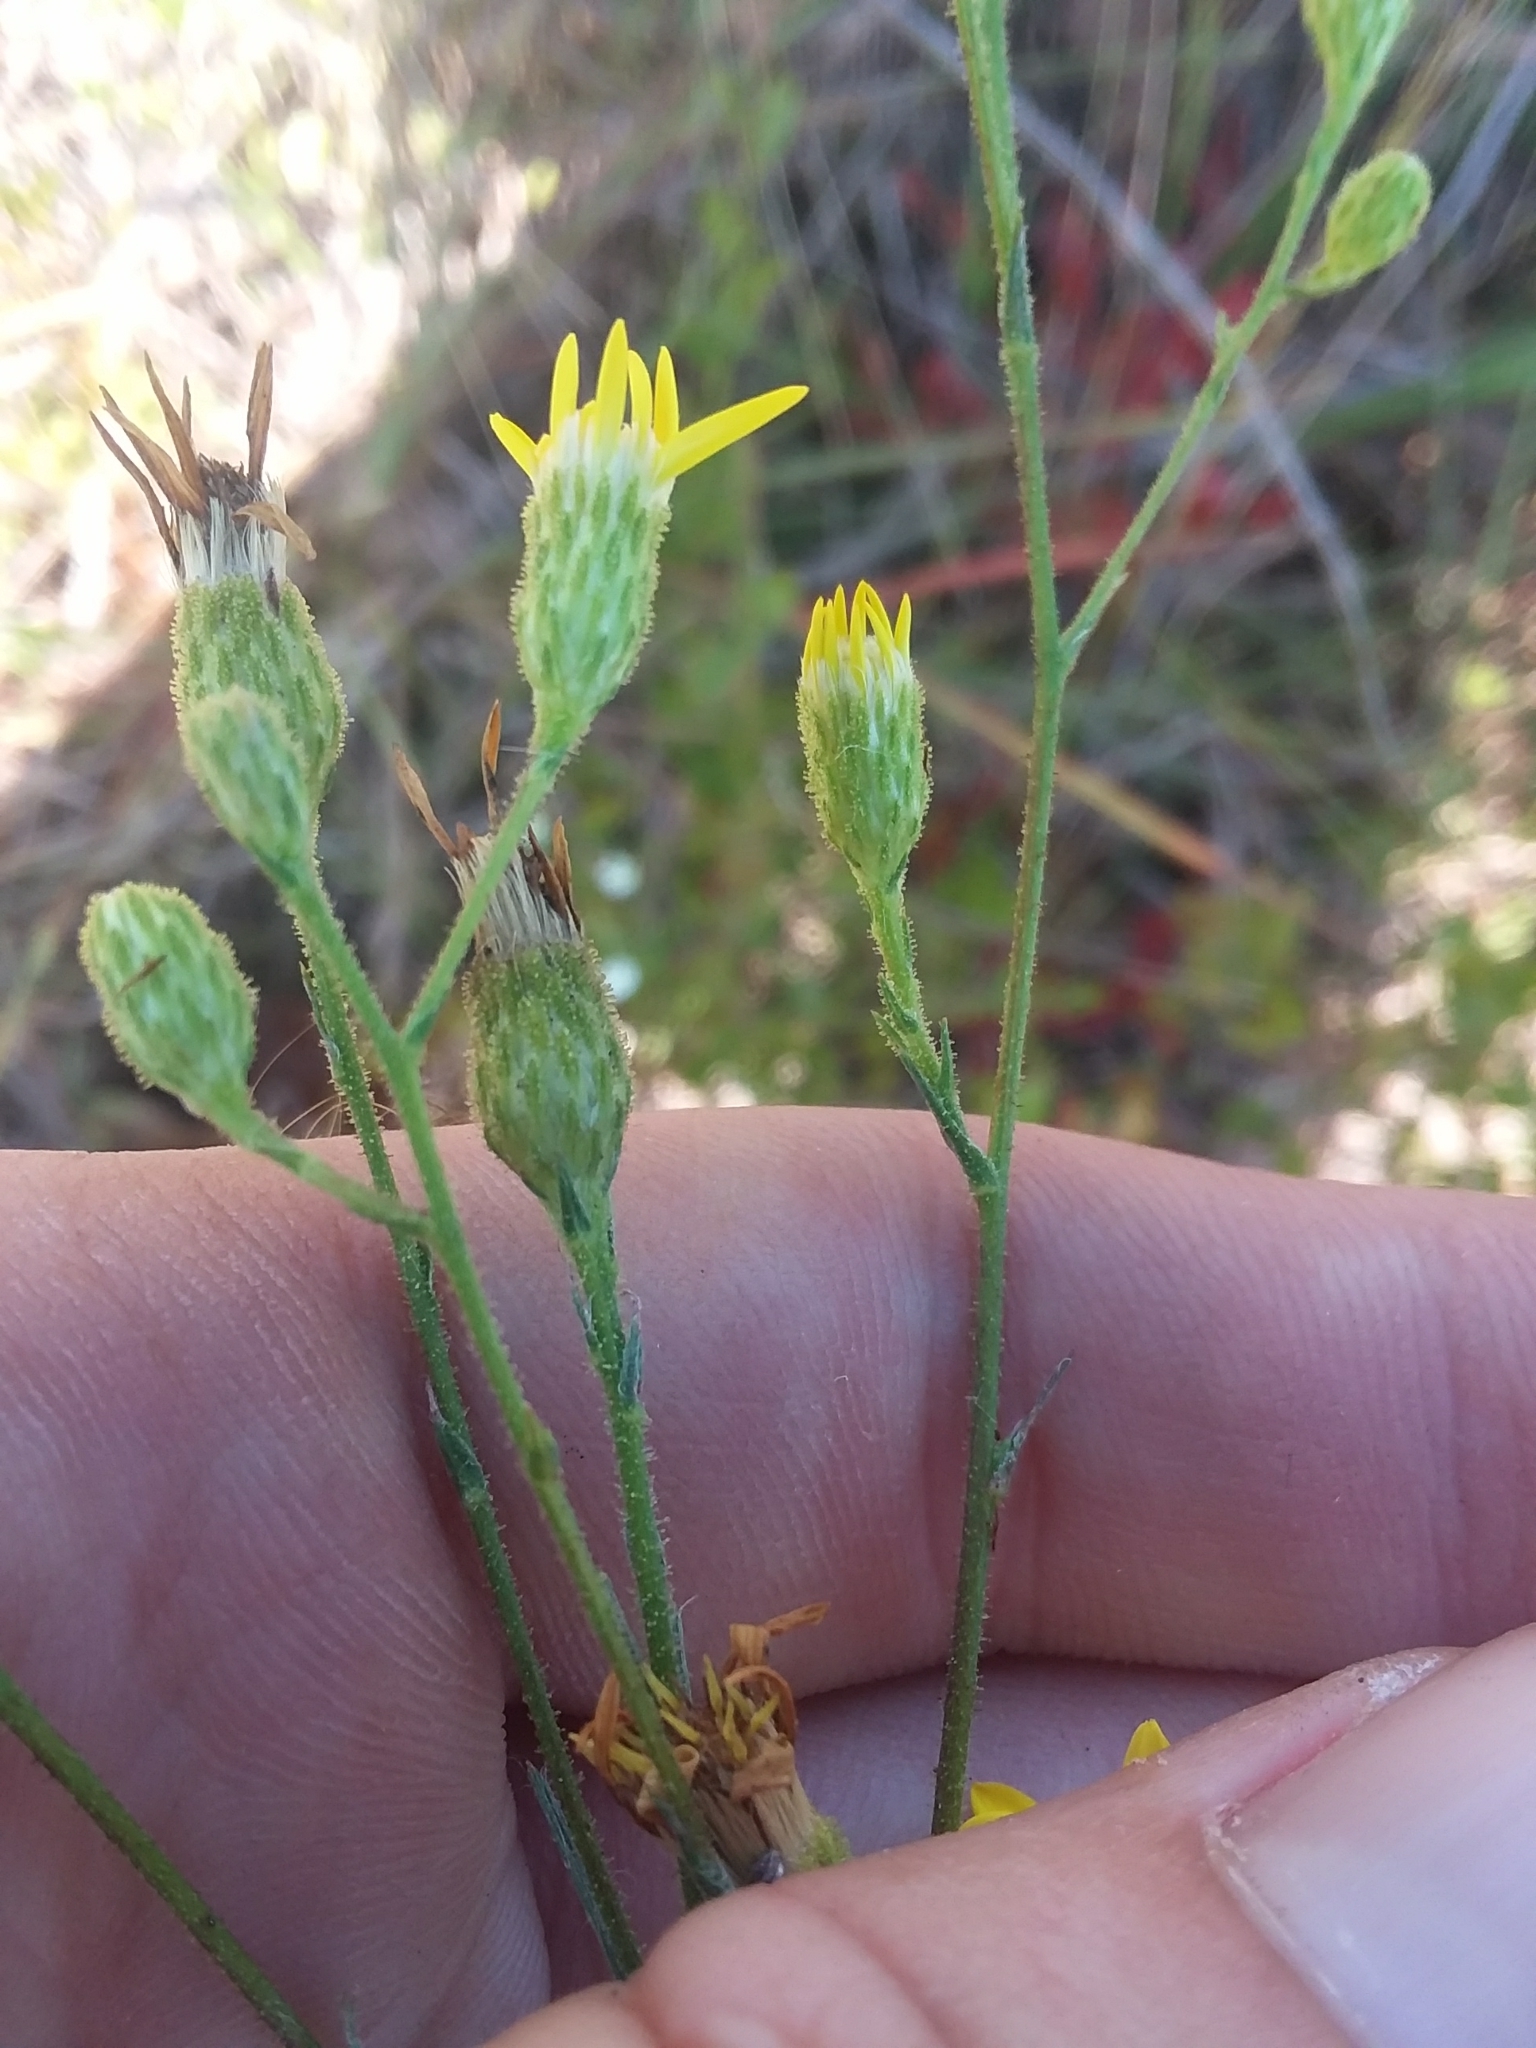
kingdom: Plantae
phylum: Tracheophyta
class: Magnoliopsida
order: Asterales
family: Asteraceae
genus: Pityopsis
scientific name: Pityopsis aspera
